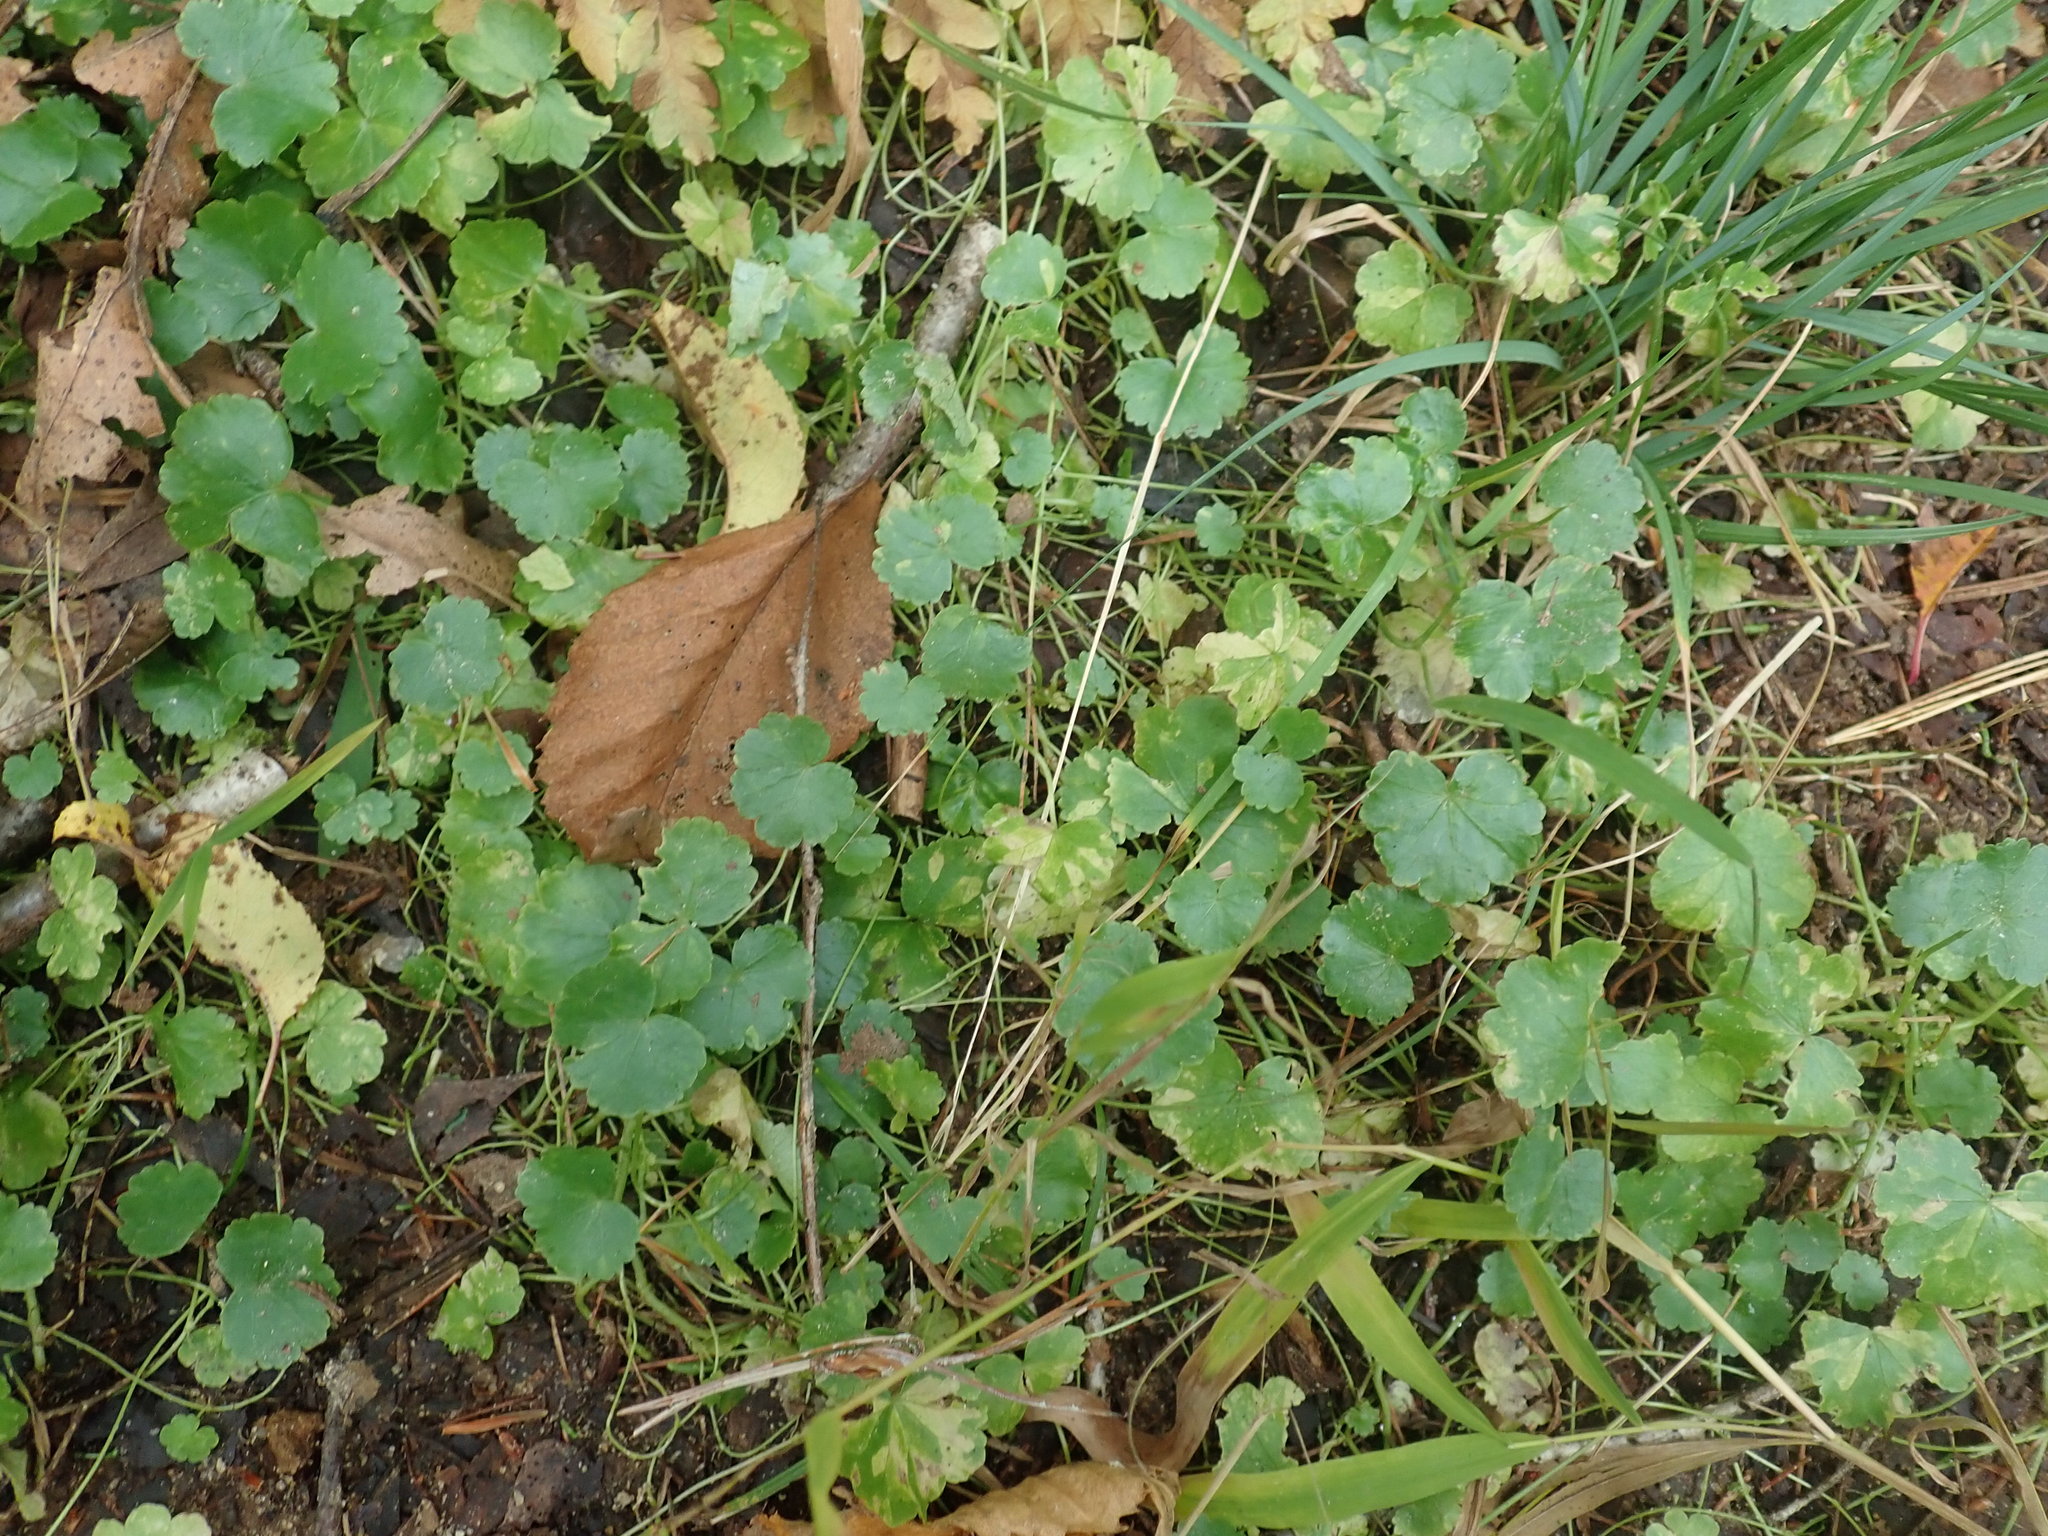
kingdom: Plantae
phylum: Tracheophyta
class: Magnoliopsida
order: Apiales
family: Araliaceae
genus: Hydrocotyle
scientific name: Hydrocotyle americana
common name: American water-pennywort
